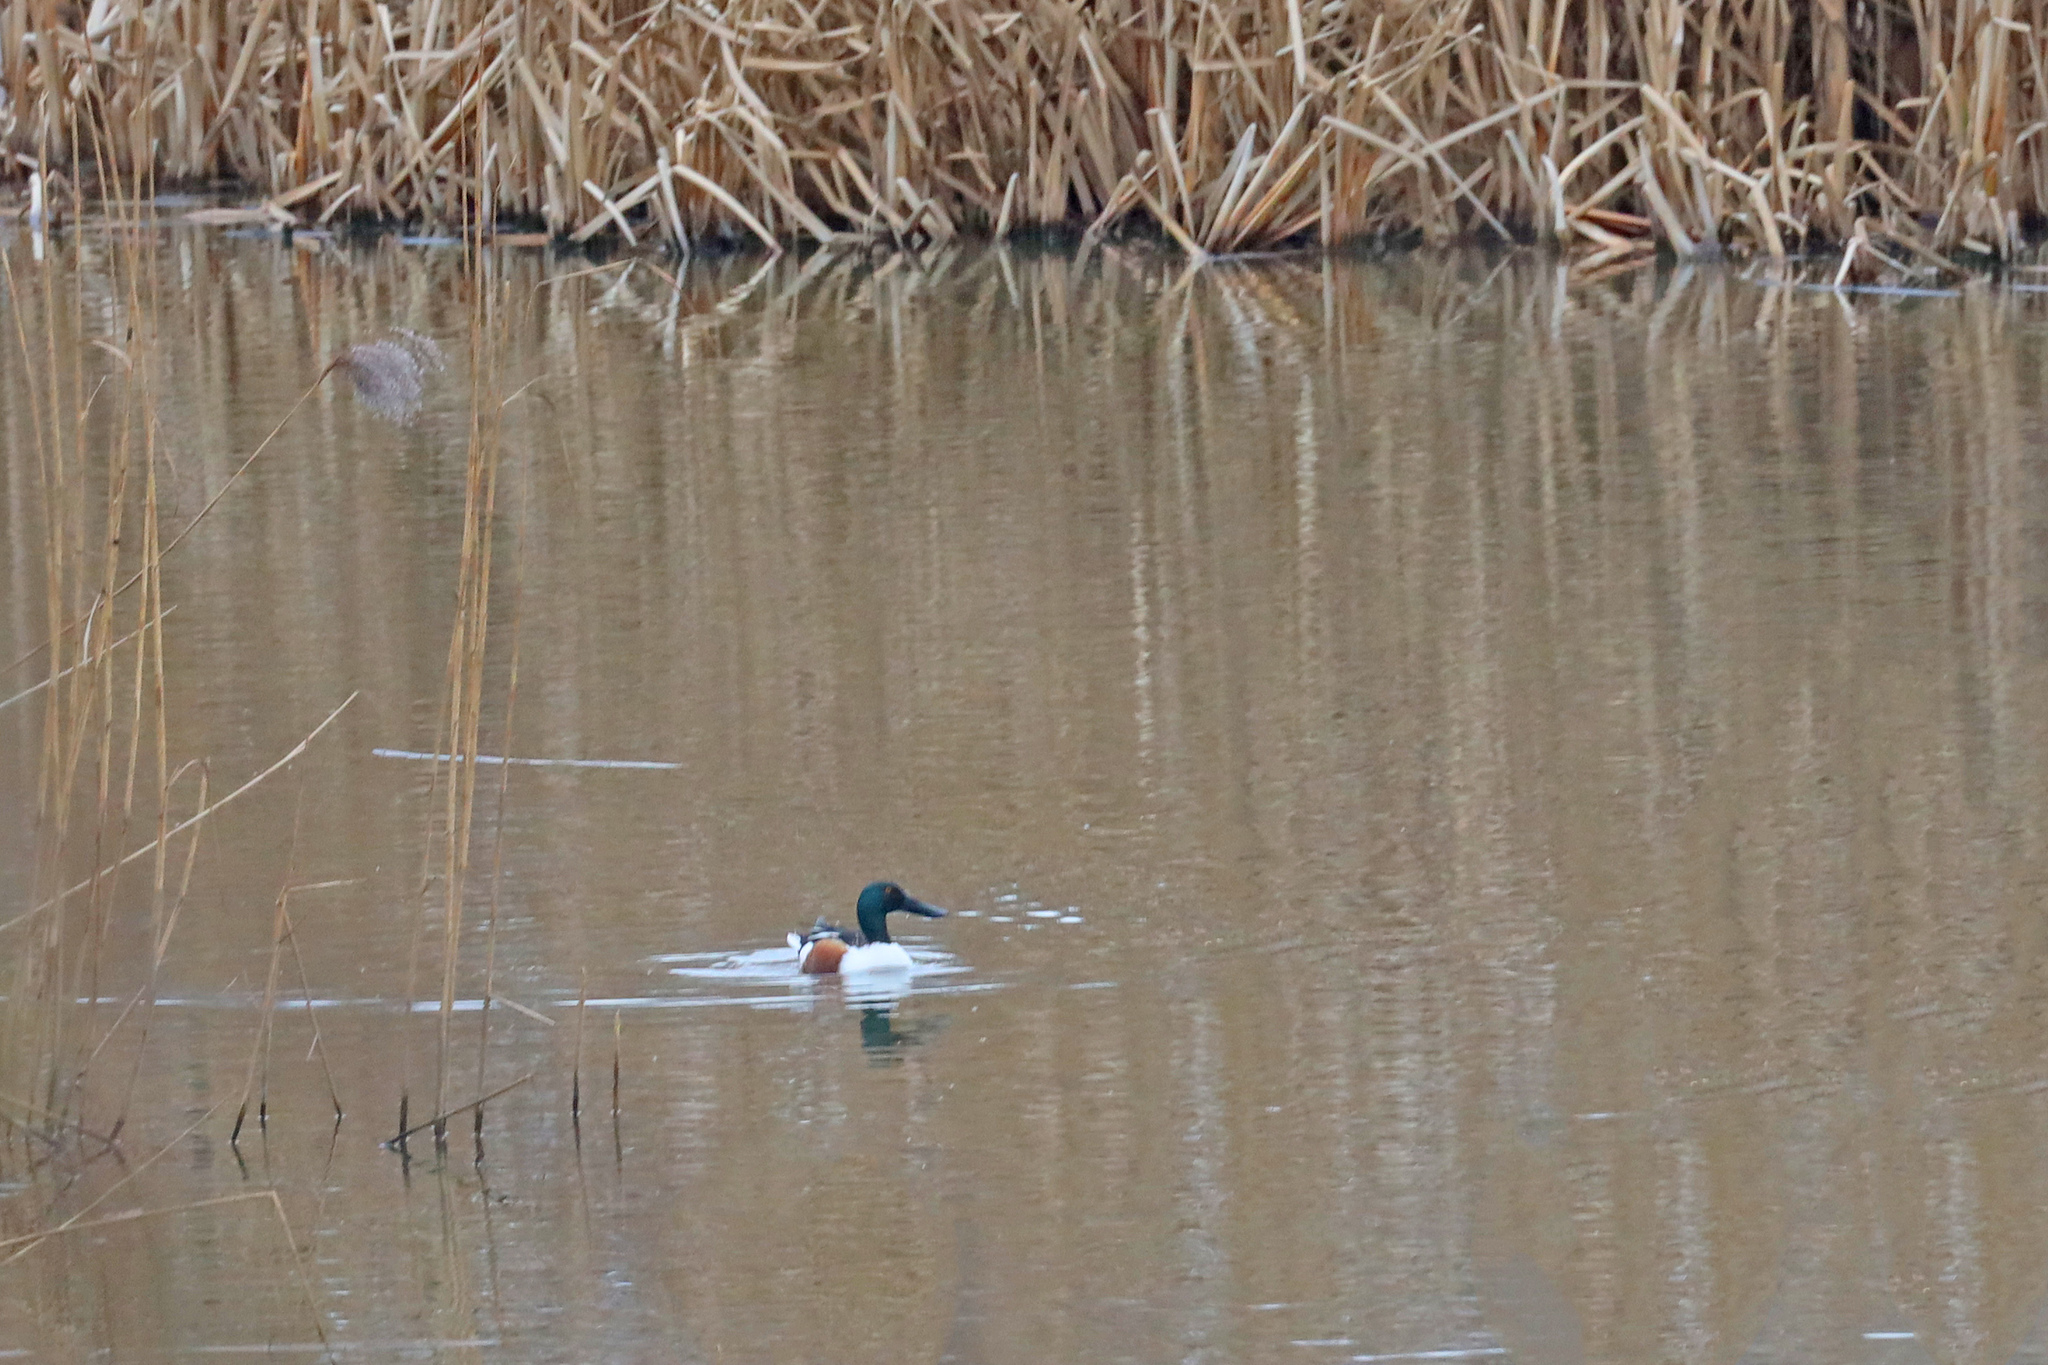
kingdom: Animalia
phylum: Chordata
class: Aves
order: Anseriformes
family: Anatidae
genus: Spatula
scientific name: Spatula clypeata
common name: Northern shoveler
